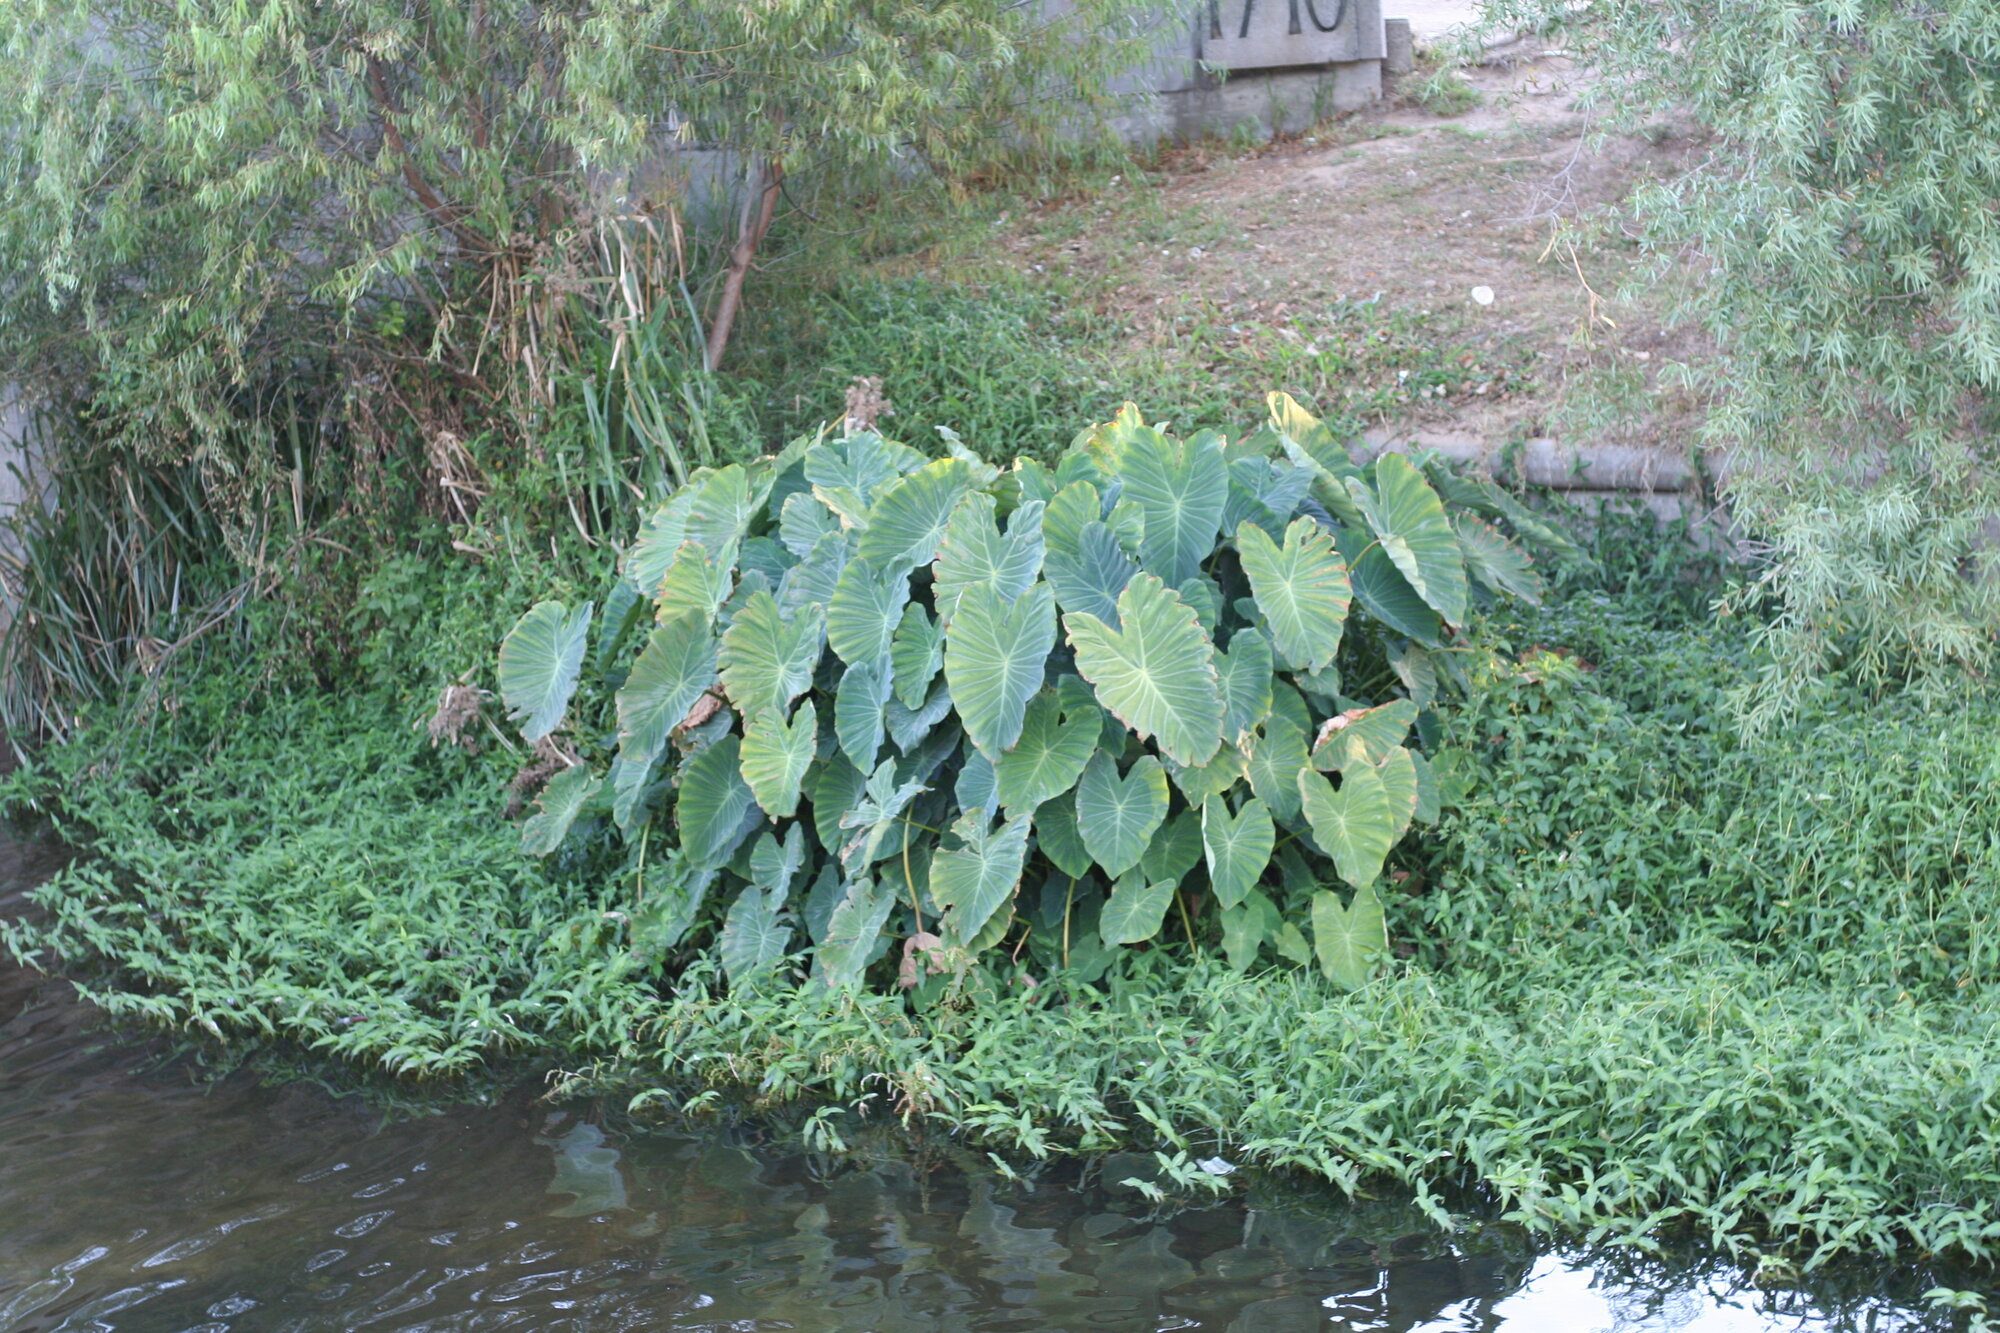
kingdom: Plantae
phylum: Tracheophyta
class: Liliopsida
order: Alismatales
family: Araceae
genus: Colocasia
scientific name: Colocasia esculenta
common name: Taro
